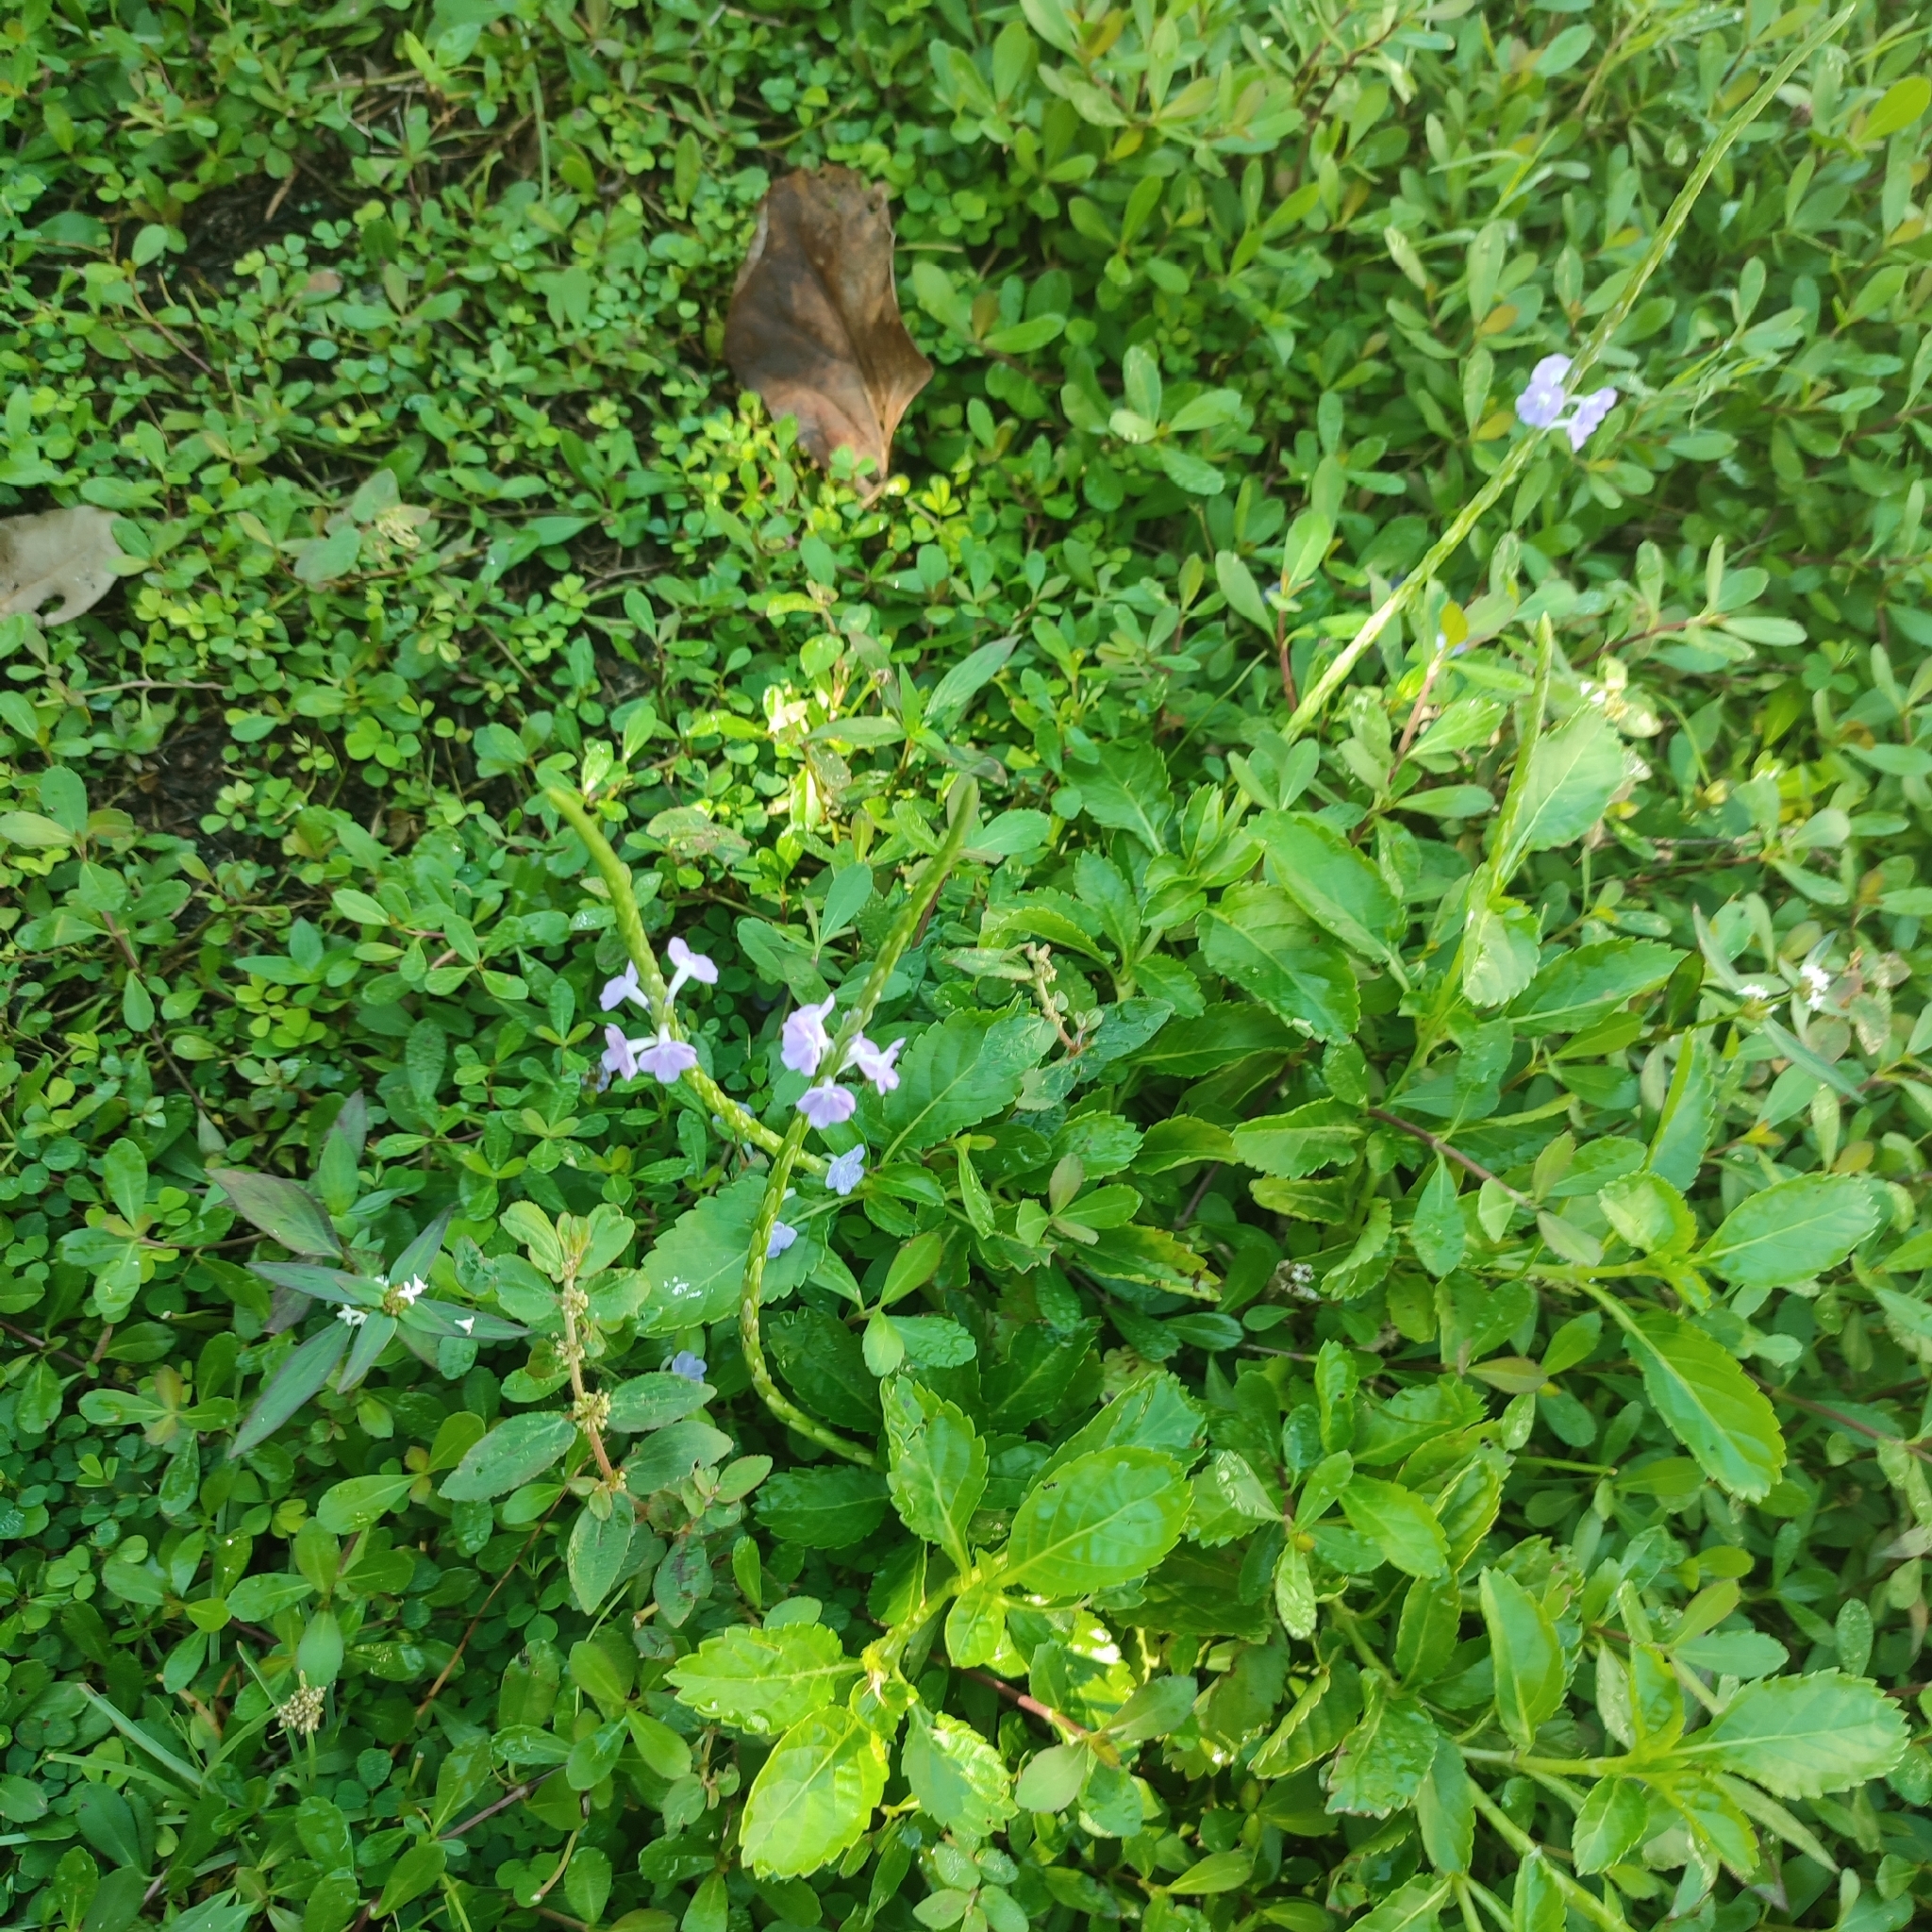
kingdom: Plantae
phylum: Tracheophyta
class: Magnoliopsida
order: Lamiales
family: Verbenaceae
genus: Stachytarpheta
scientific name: Stachytarpheta jamaicensis
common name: Light-blue snakeweed
